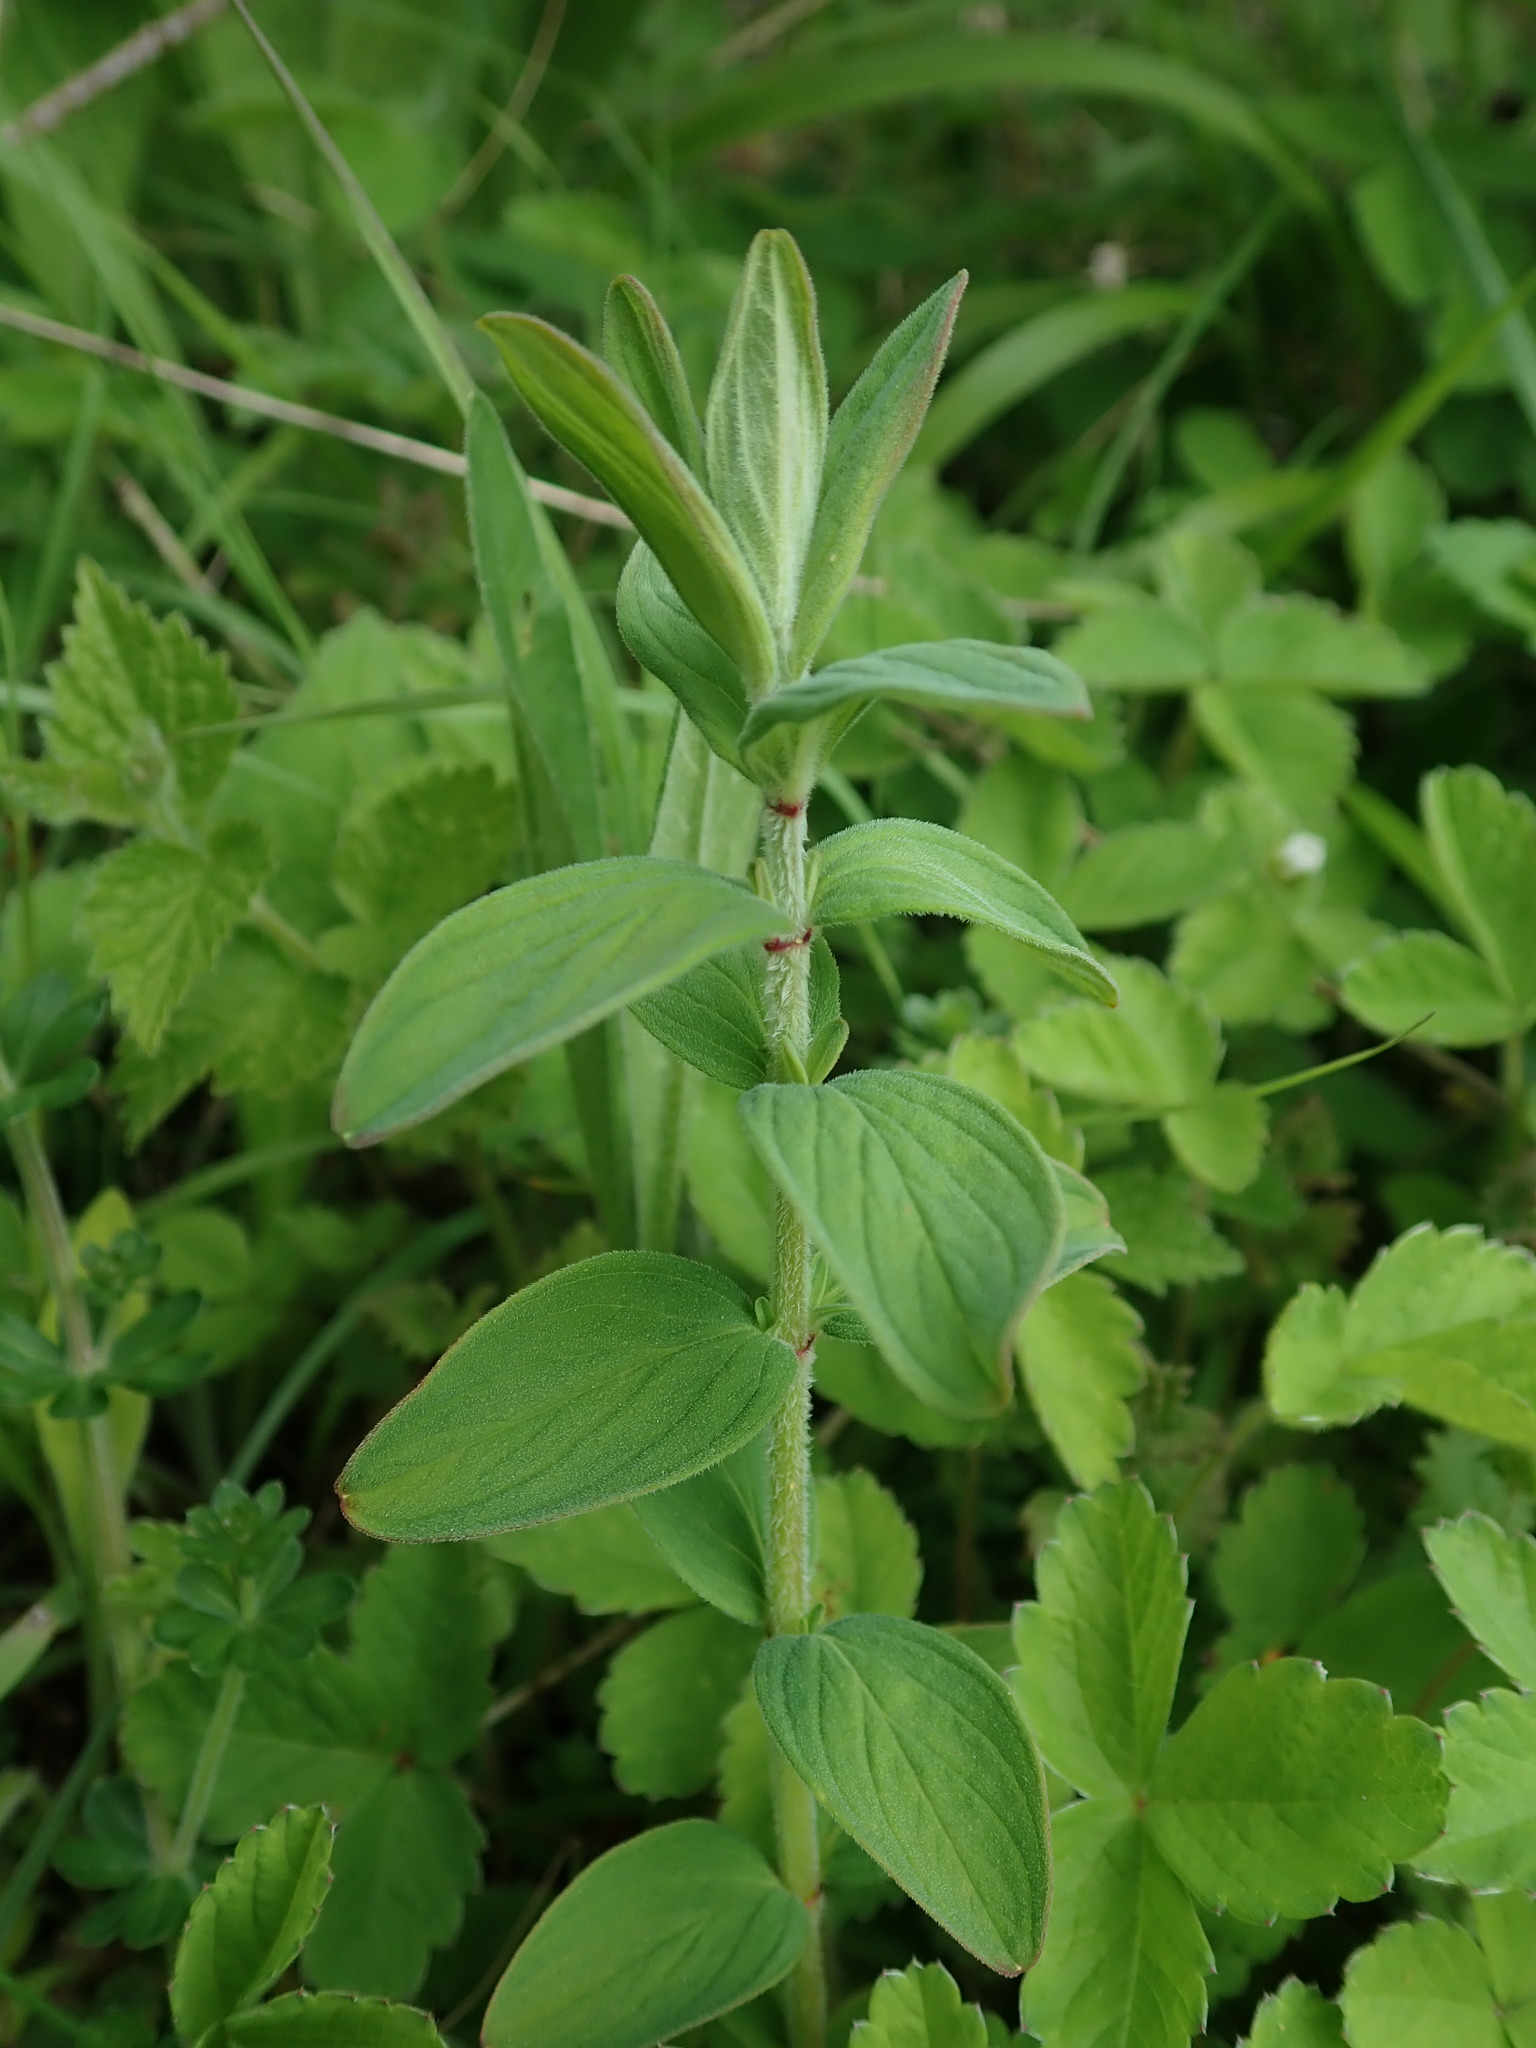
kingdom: Plantae
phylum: Tracheophyta
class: Magnoliopsida
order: Malpighiales
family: Hypericaceae
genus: Hypericum
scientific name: Hypericum hirsutum
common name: Hairy st. john's-wort
